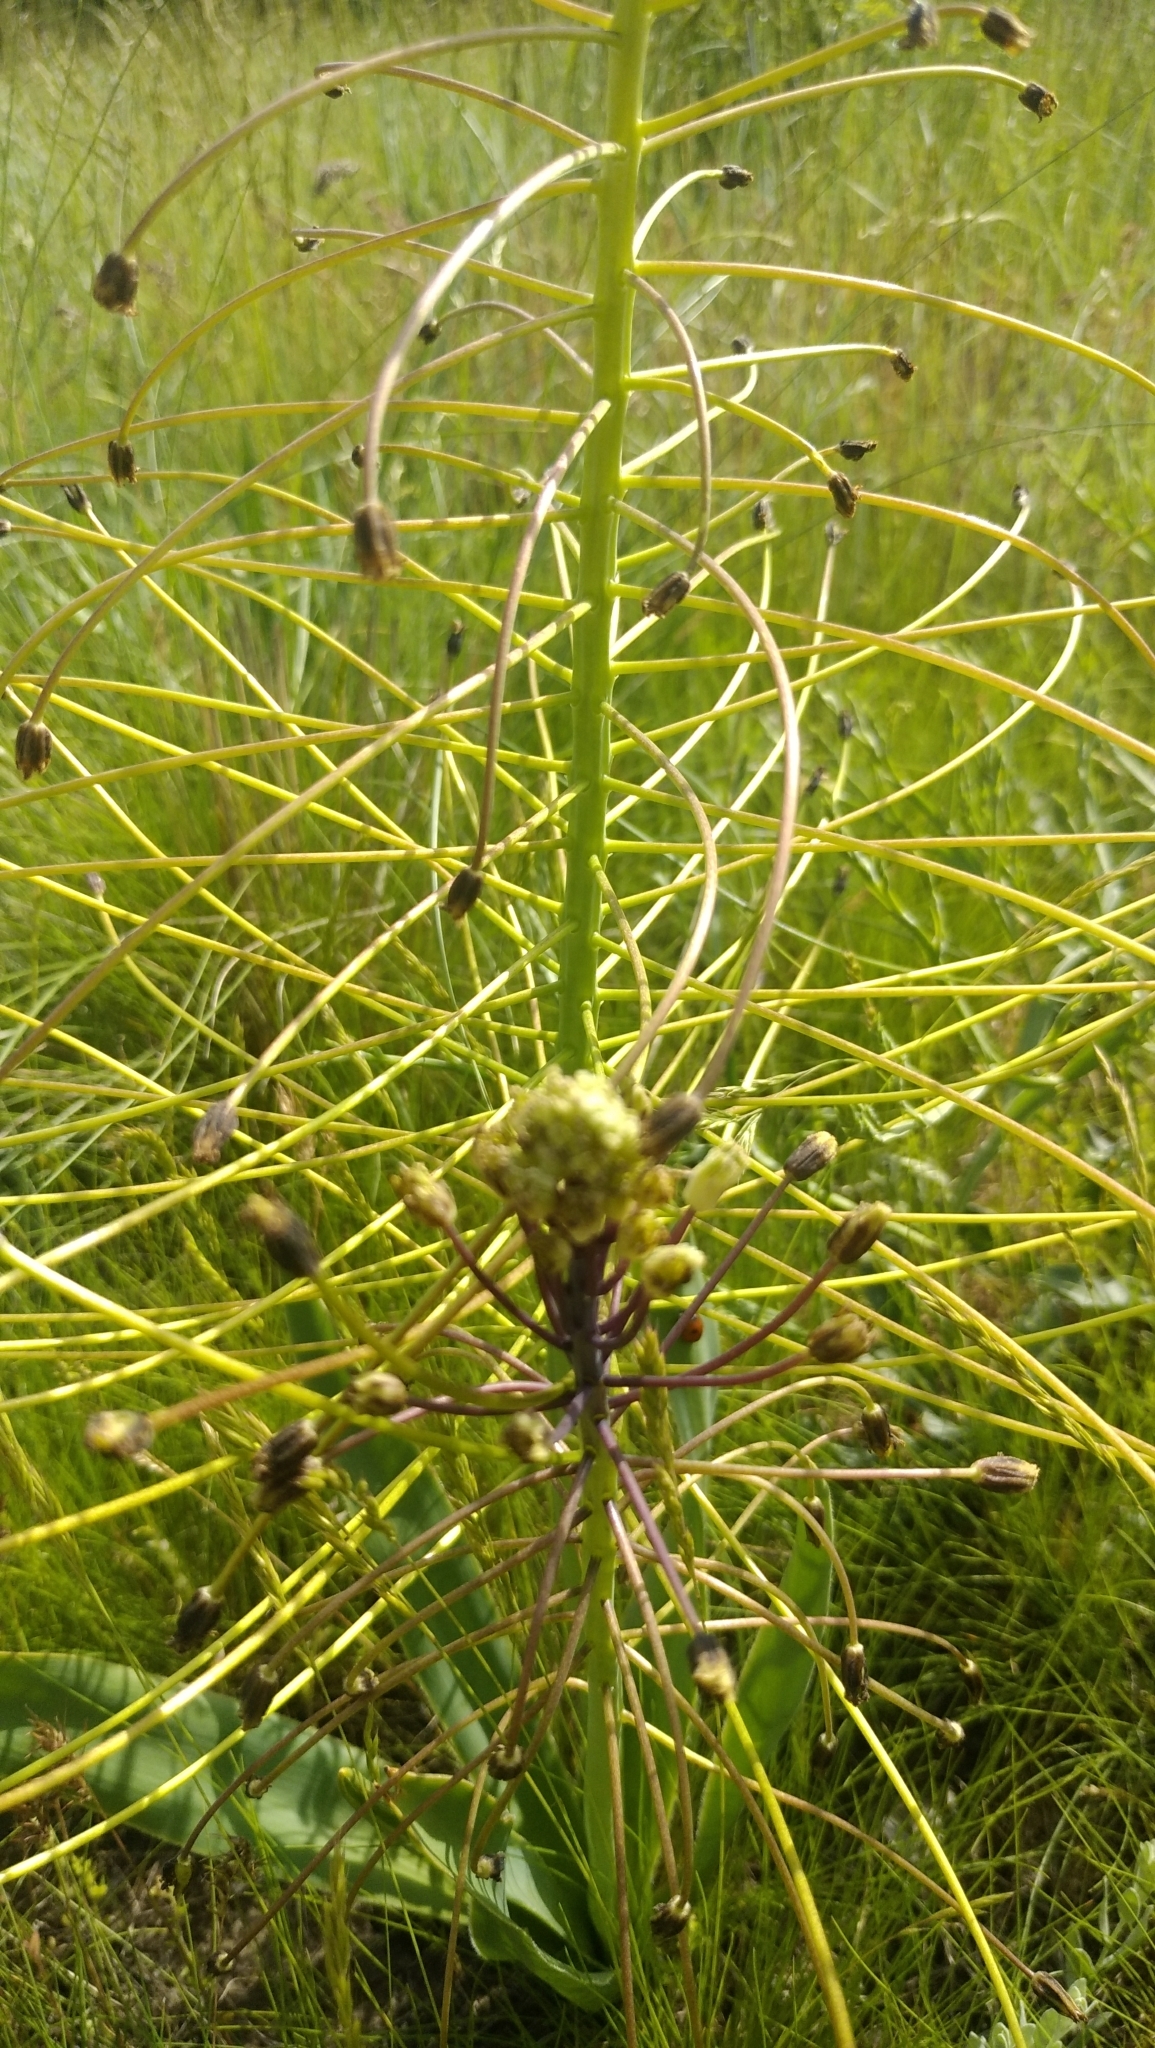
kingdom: Plantae
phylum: Tracheophyta
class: Liliopsida
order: Asparagales
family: Asparagaceae
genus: Bellevalia
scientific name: Bellevalia speciosa
